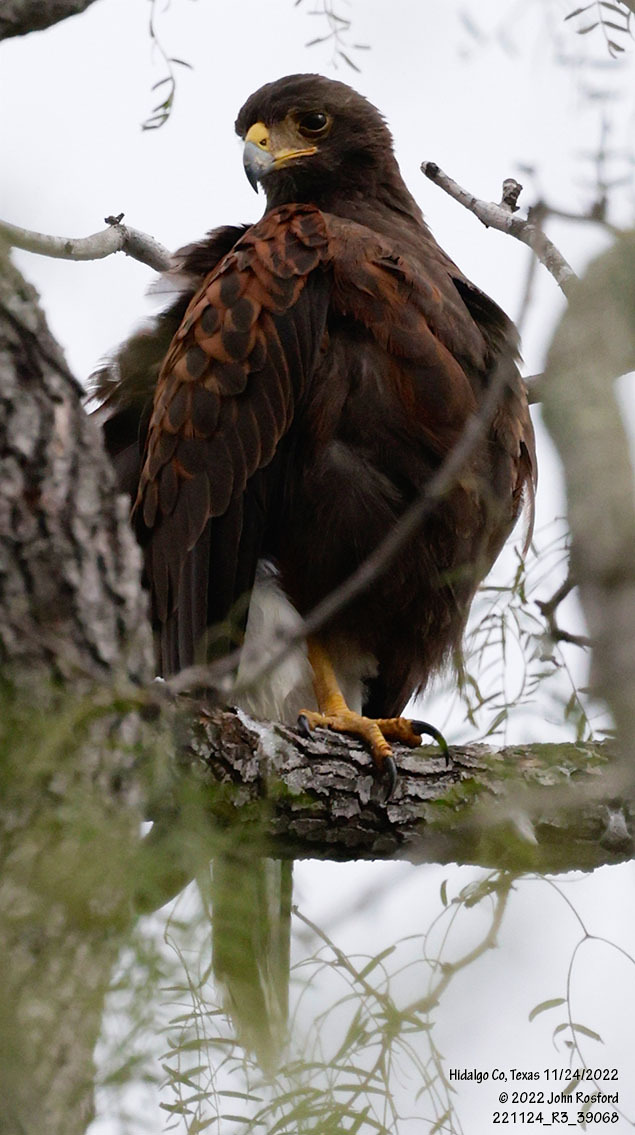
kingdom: Animalia
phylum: Chordata
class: Aves
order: Accipitriformes
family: Accipitridae
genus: Parabuteo
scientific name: Parabuteo unicinctus
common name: Harris's hawk
